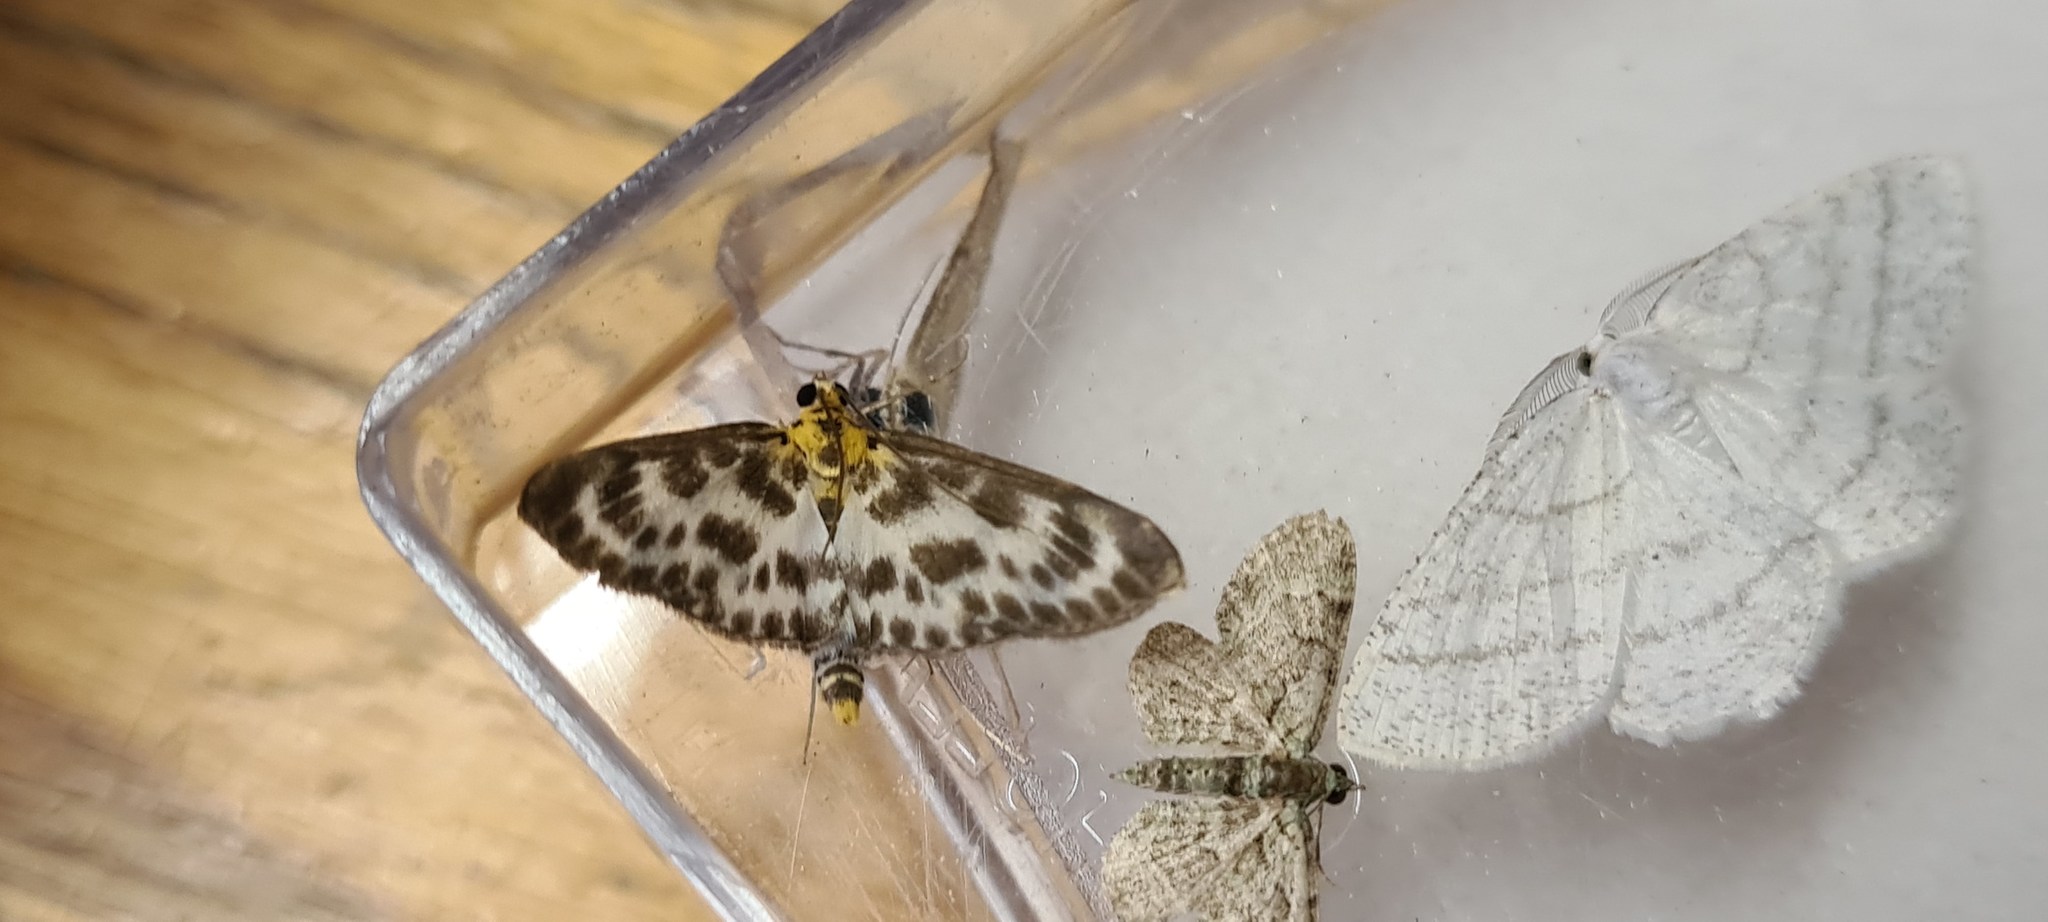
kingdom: Animalia
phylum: Arthropoda
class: Insecta
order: Lepidoptera
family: Crambidae
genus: Anania
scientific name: Anania hortulata
